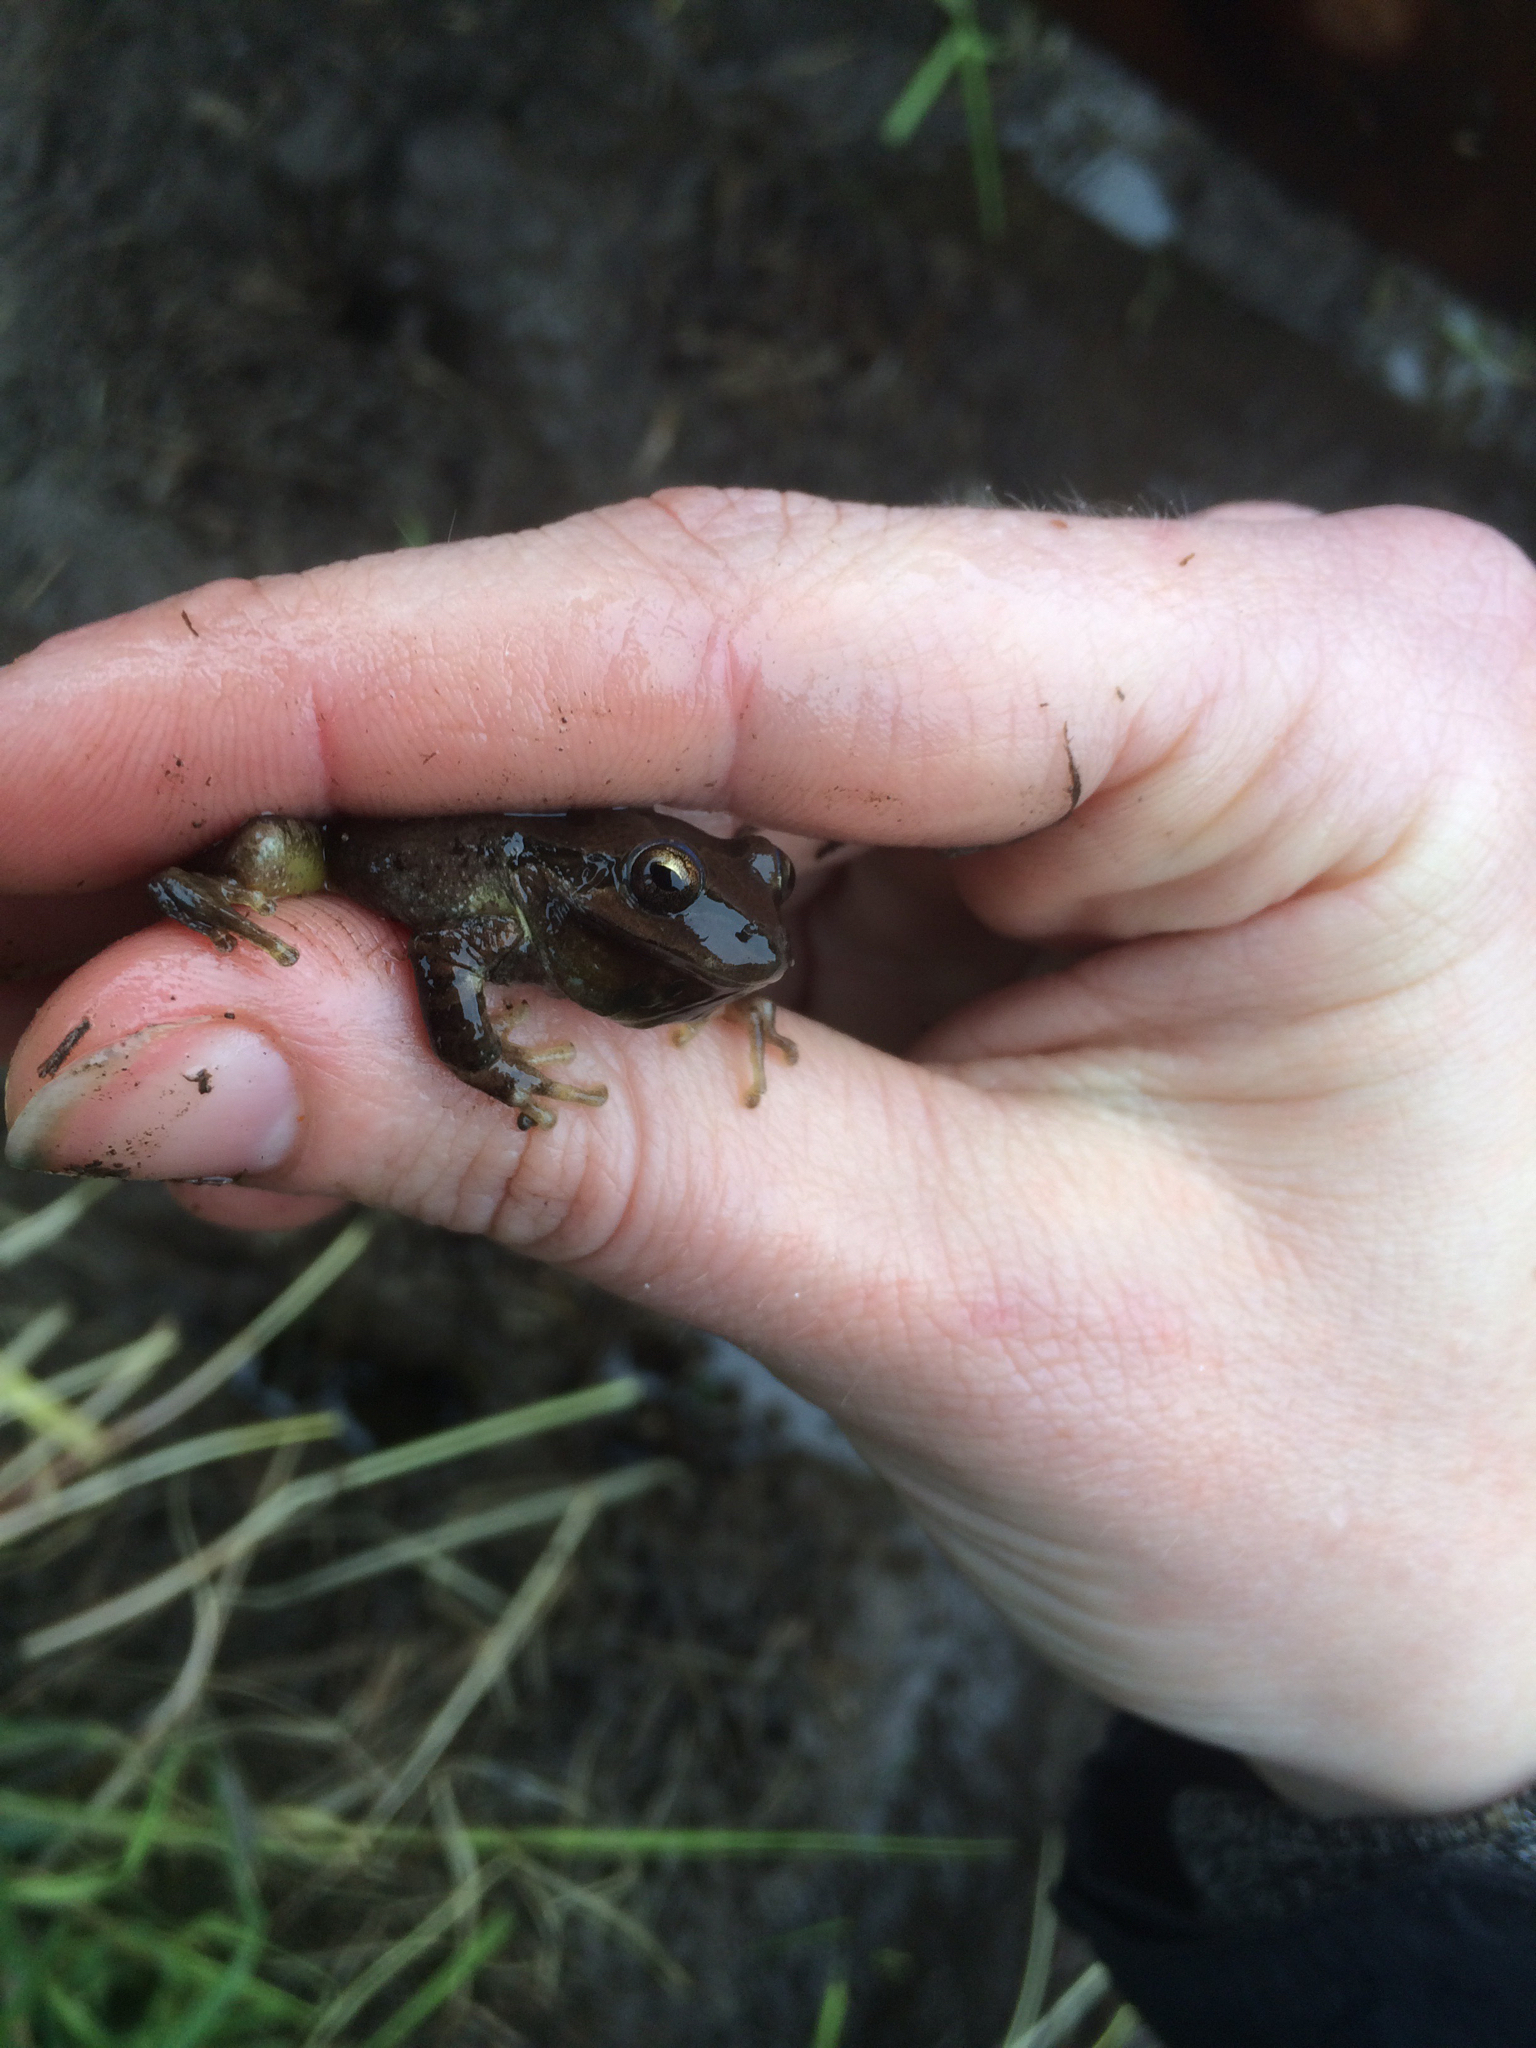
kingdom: Animalia
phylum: Chordata
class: Amphibia
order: Anura
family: Hylidae
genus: Pseudacris
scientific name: Pseudacris regilla
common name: Pacific chorus frog
